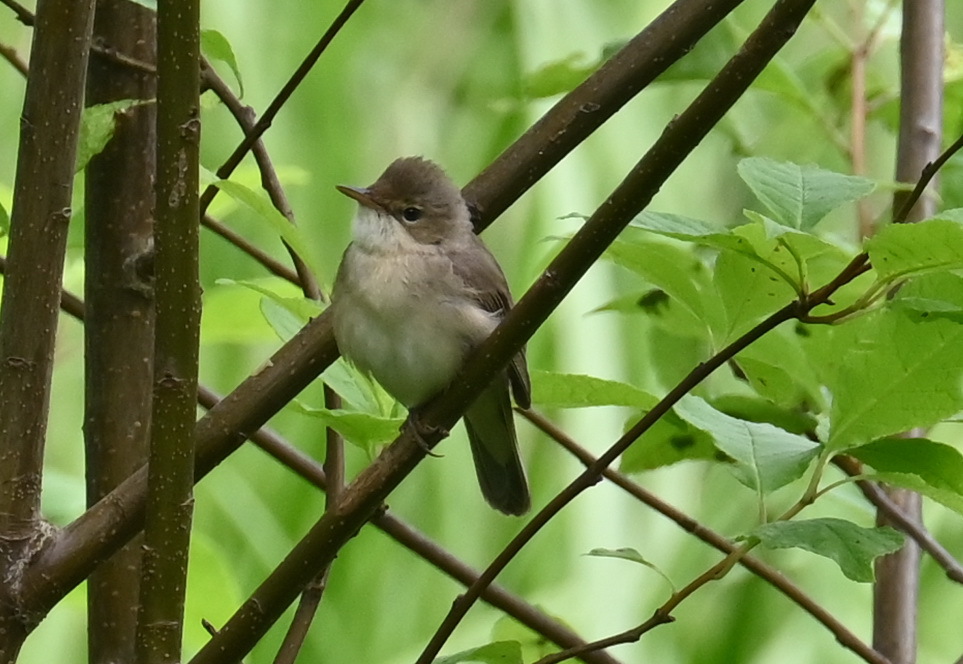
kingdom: Animalia
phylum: Chordata
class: Aves
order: Passeriformes
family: Acrocephalidae
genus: Acrocephalus
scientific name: Acrocephalus palustris
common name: Marsh warbler
